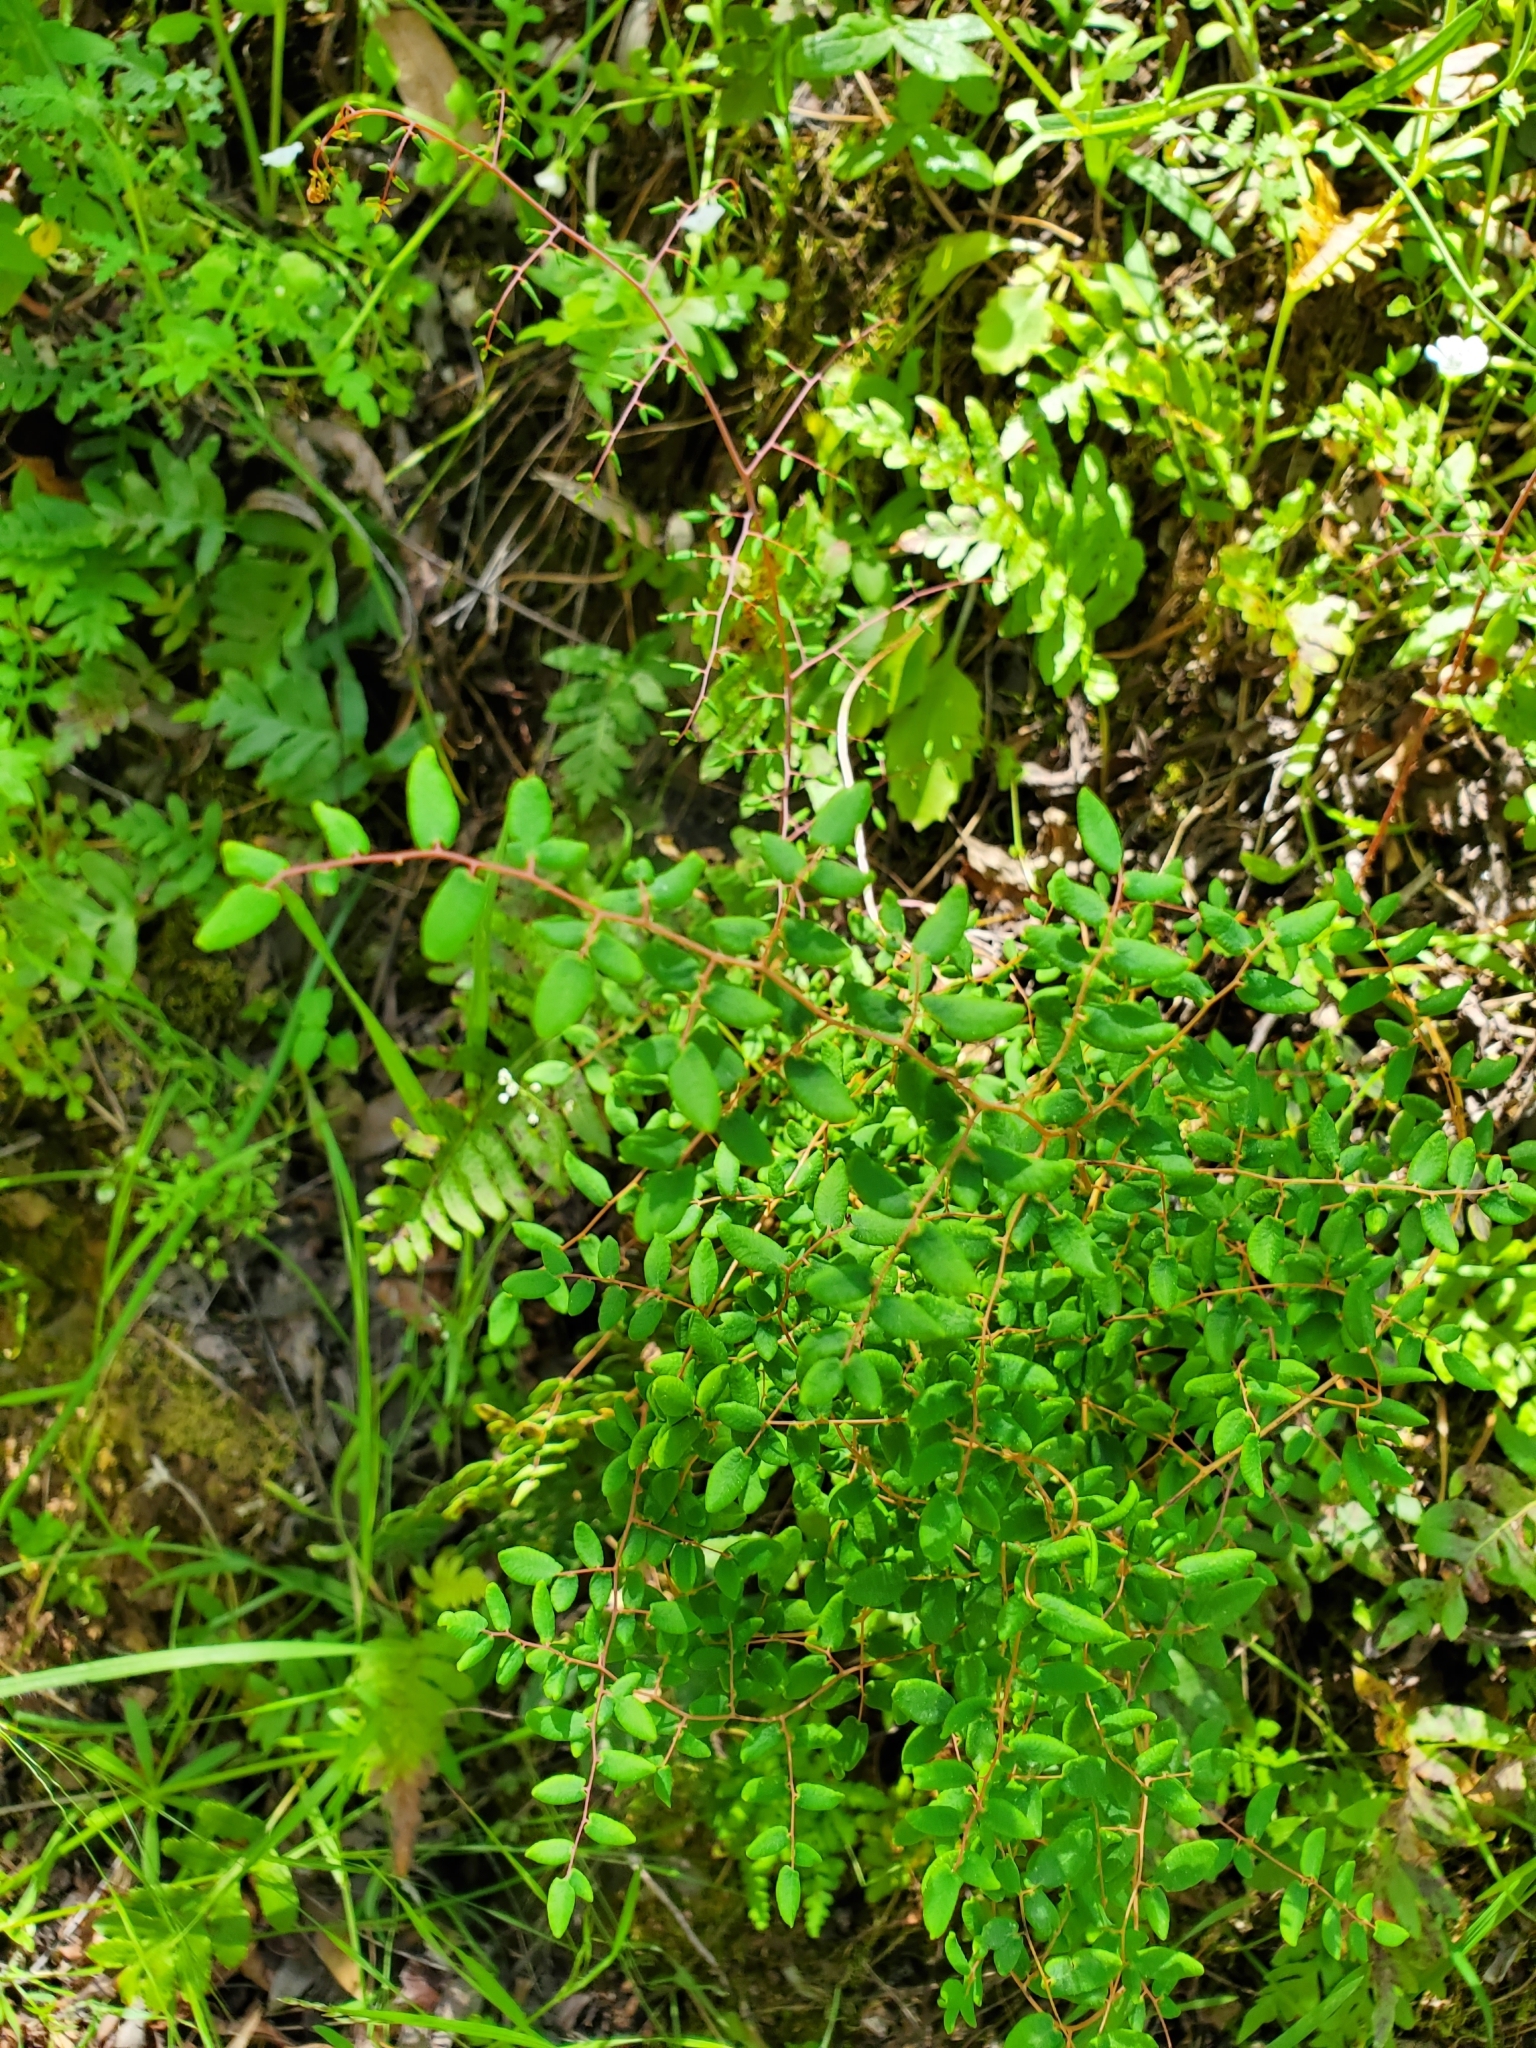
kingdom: Plantae
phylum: Tracheophyta
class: Polypodiopsida
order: Polypodiales
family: Pteridaceae
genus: Pellaea
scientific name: Pellaea andromedifolia
